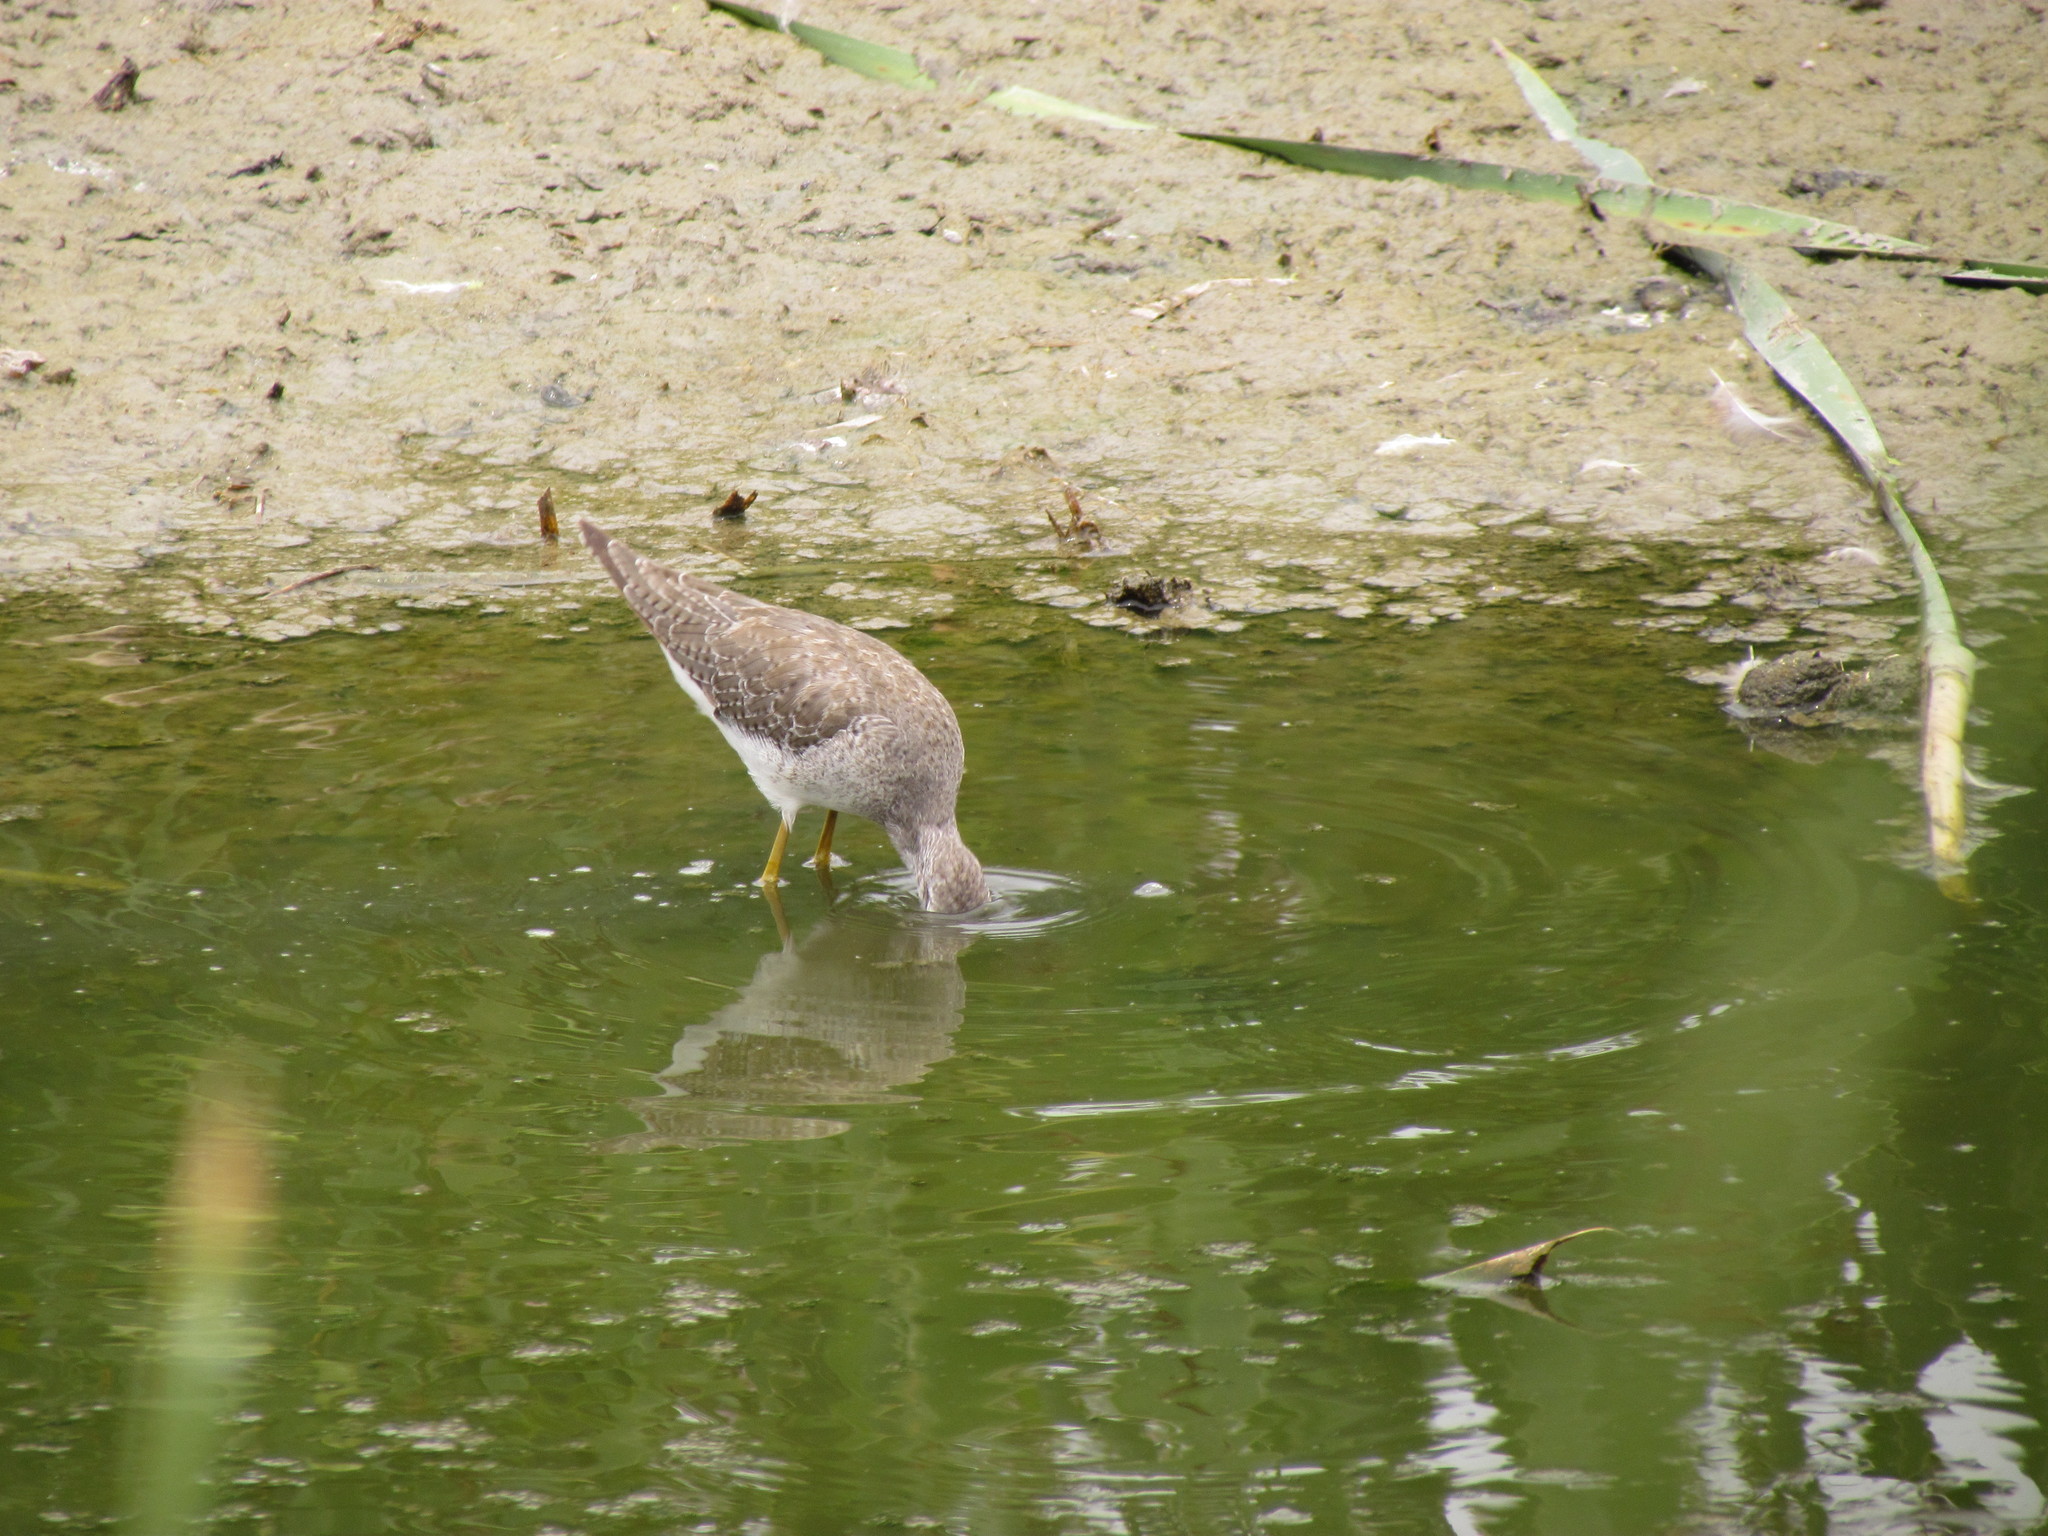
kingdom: Animalia
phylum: Chordata
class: Aves
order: Charadriiformes
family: Scolopacidae
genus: Tringa
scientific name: Tringa flavipes
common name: Lesser yellowlegs
